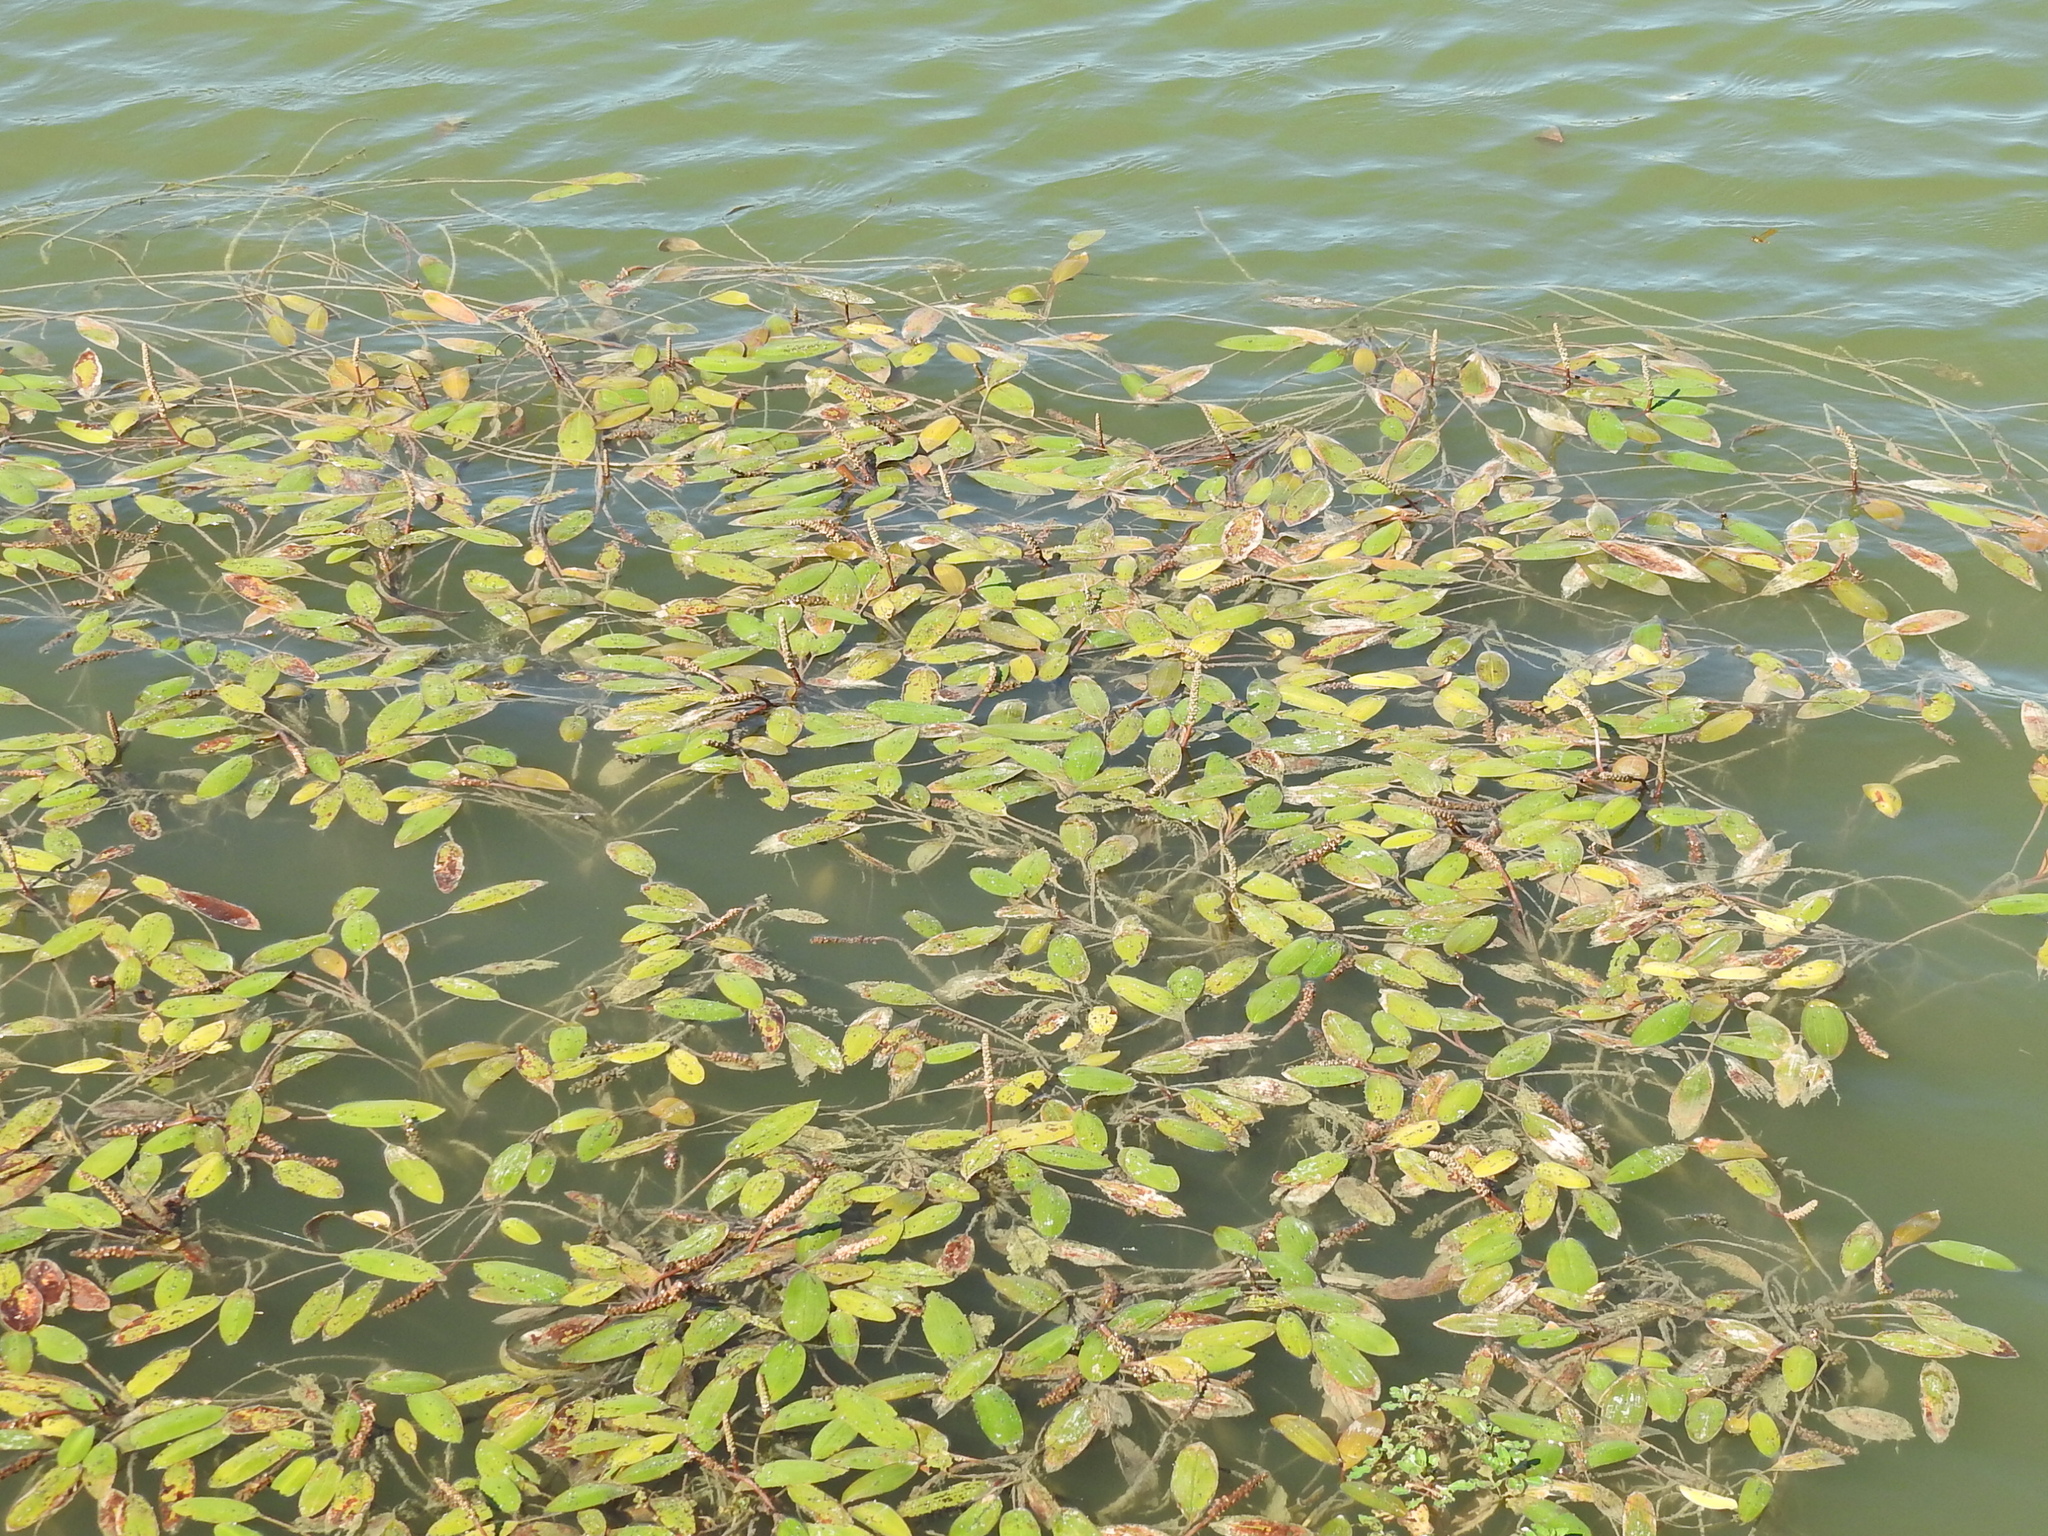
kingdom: Plantae
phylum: Tracheophyta
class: Liliopsida
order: Alismatales
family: Potamogetonaceae
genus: Potamogeton
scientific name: Potamogeton nodosus
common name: Loddon pondweed
